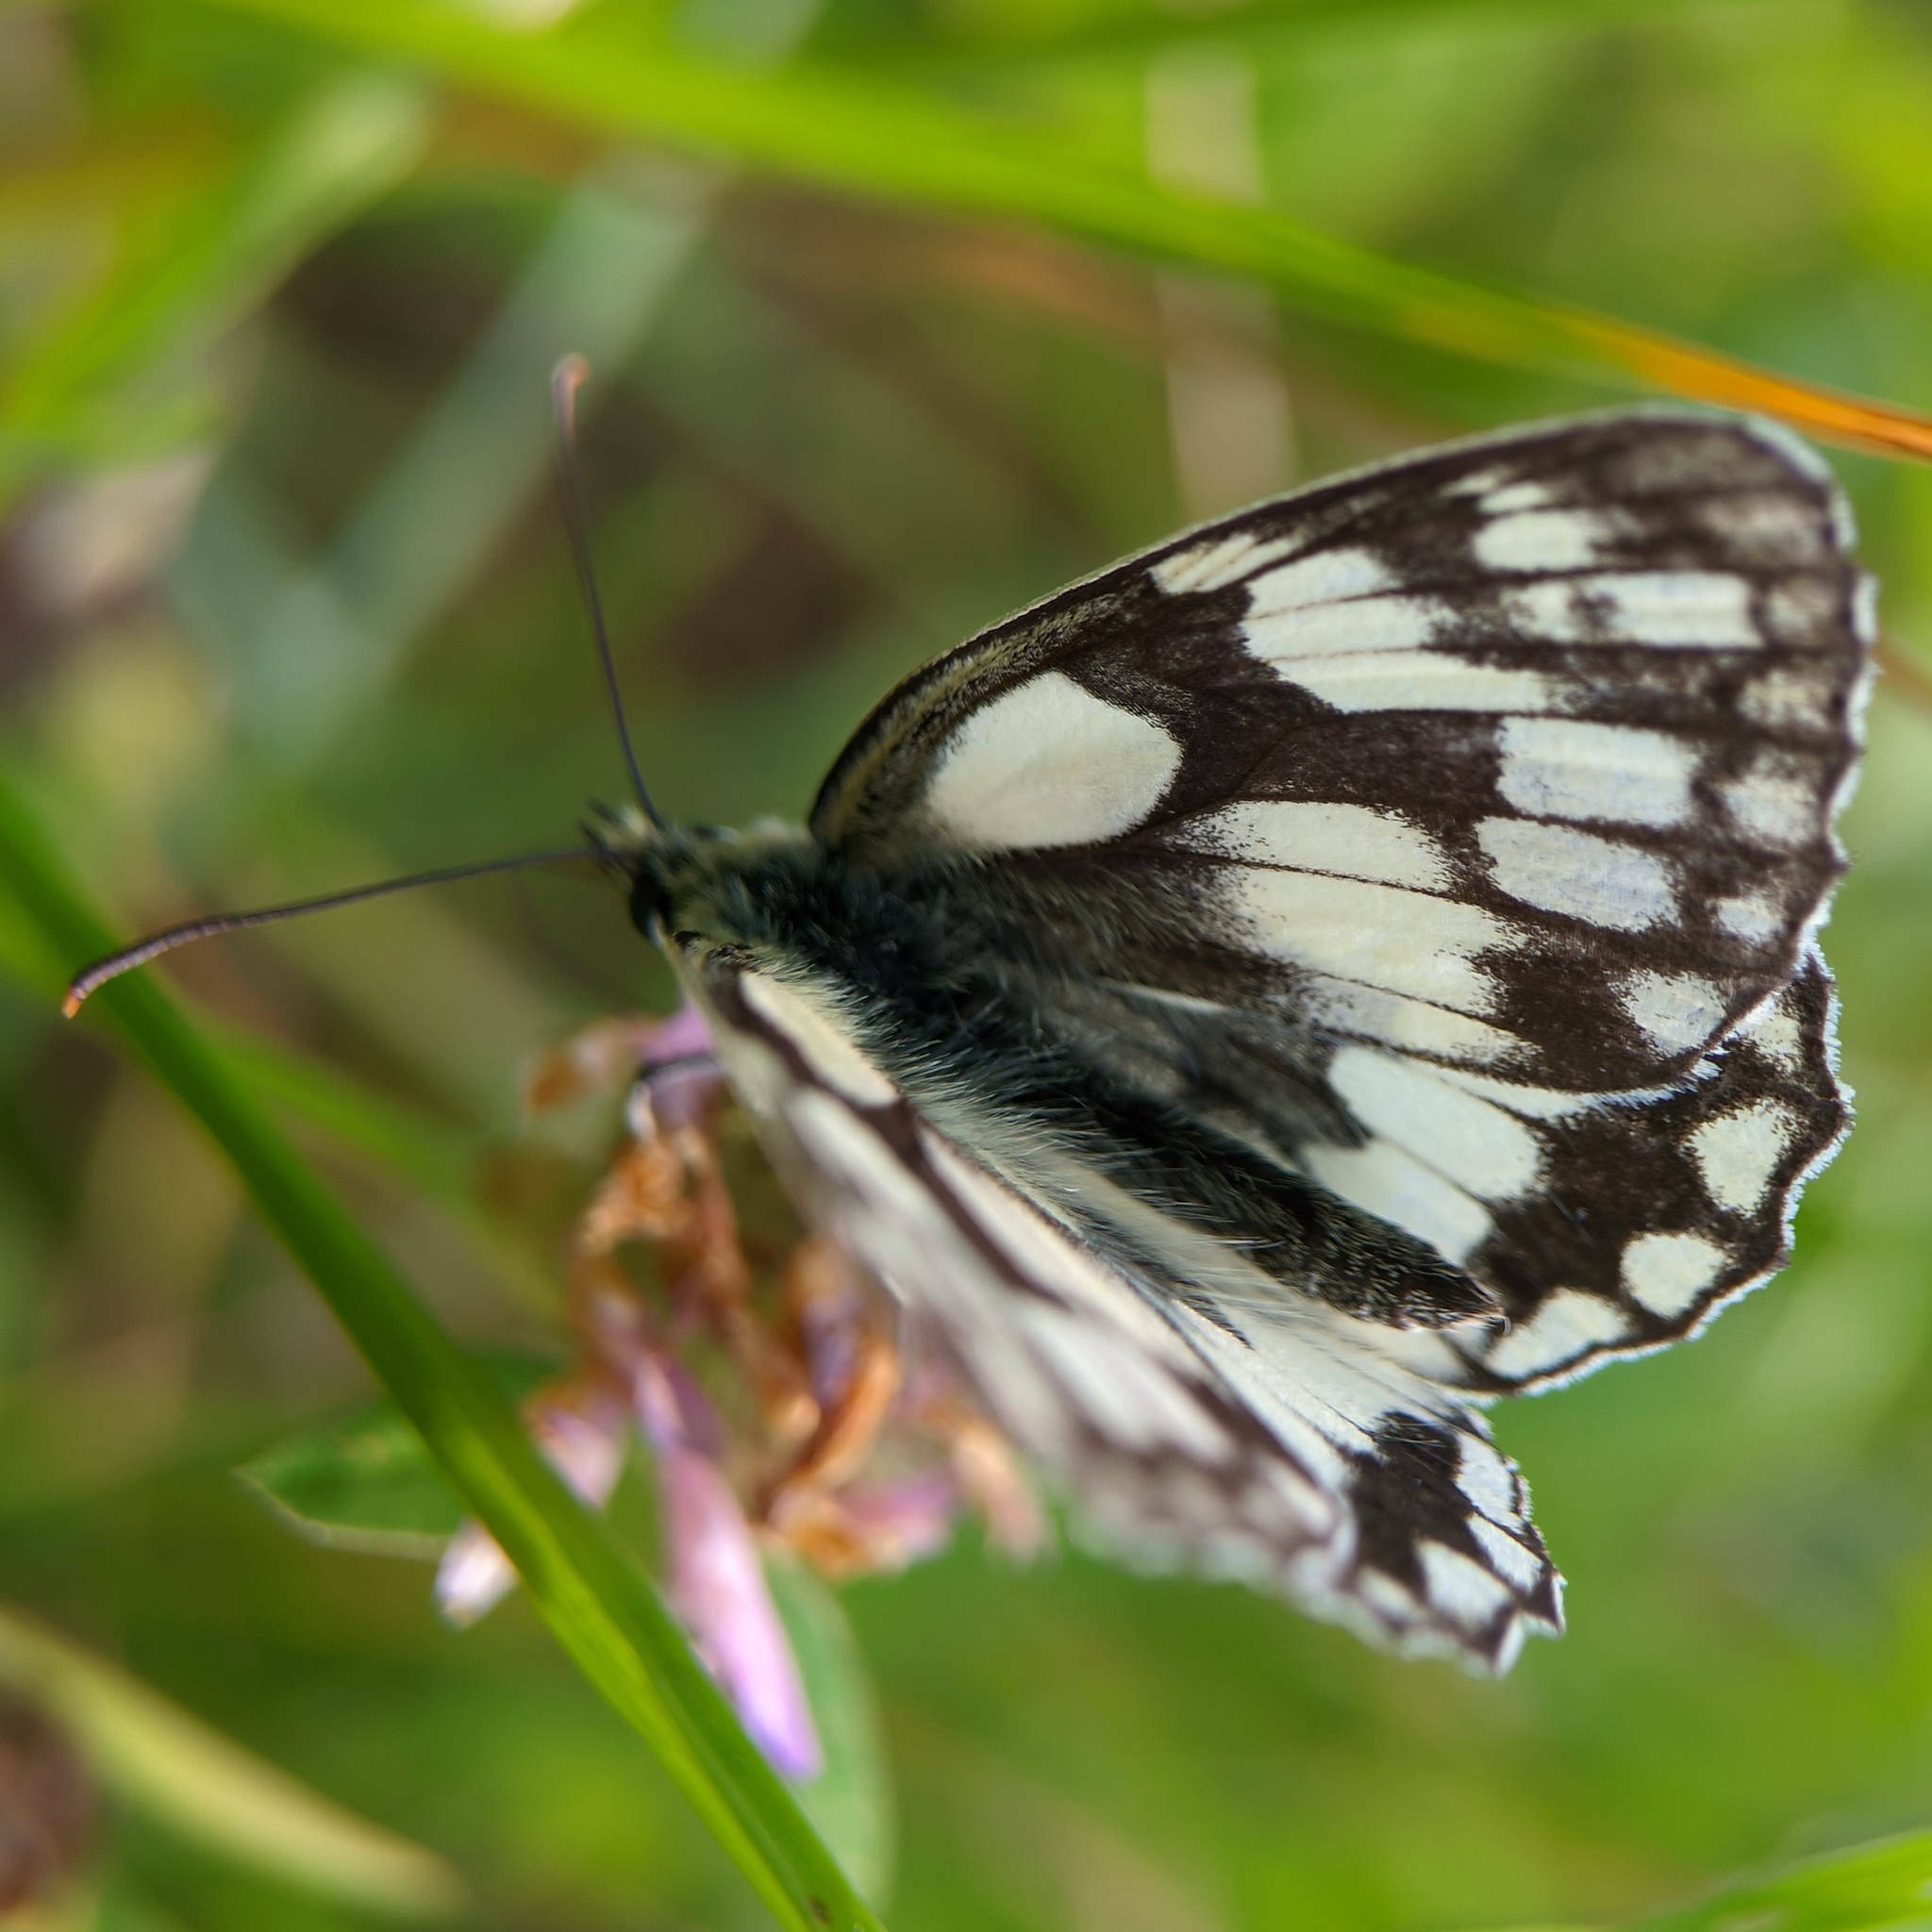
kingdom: Animalia
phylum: Arthropoda
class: Insecta
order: Lepidoptera
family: Nymphalidae
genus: Melanargia
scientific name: Melanargia galathea
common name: Marbled white
